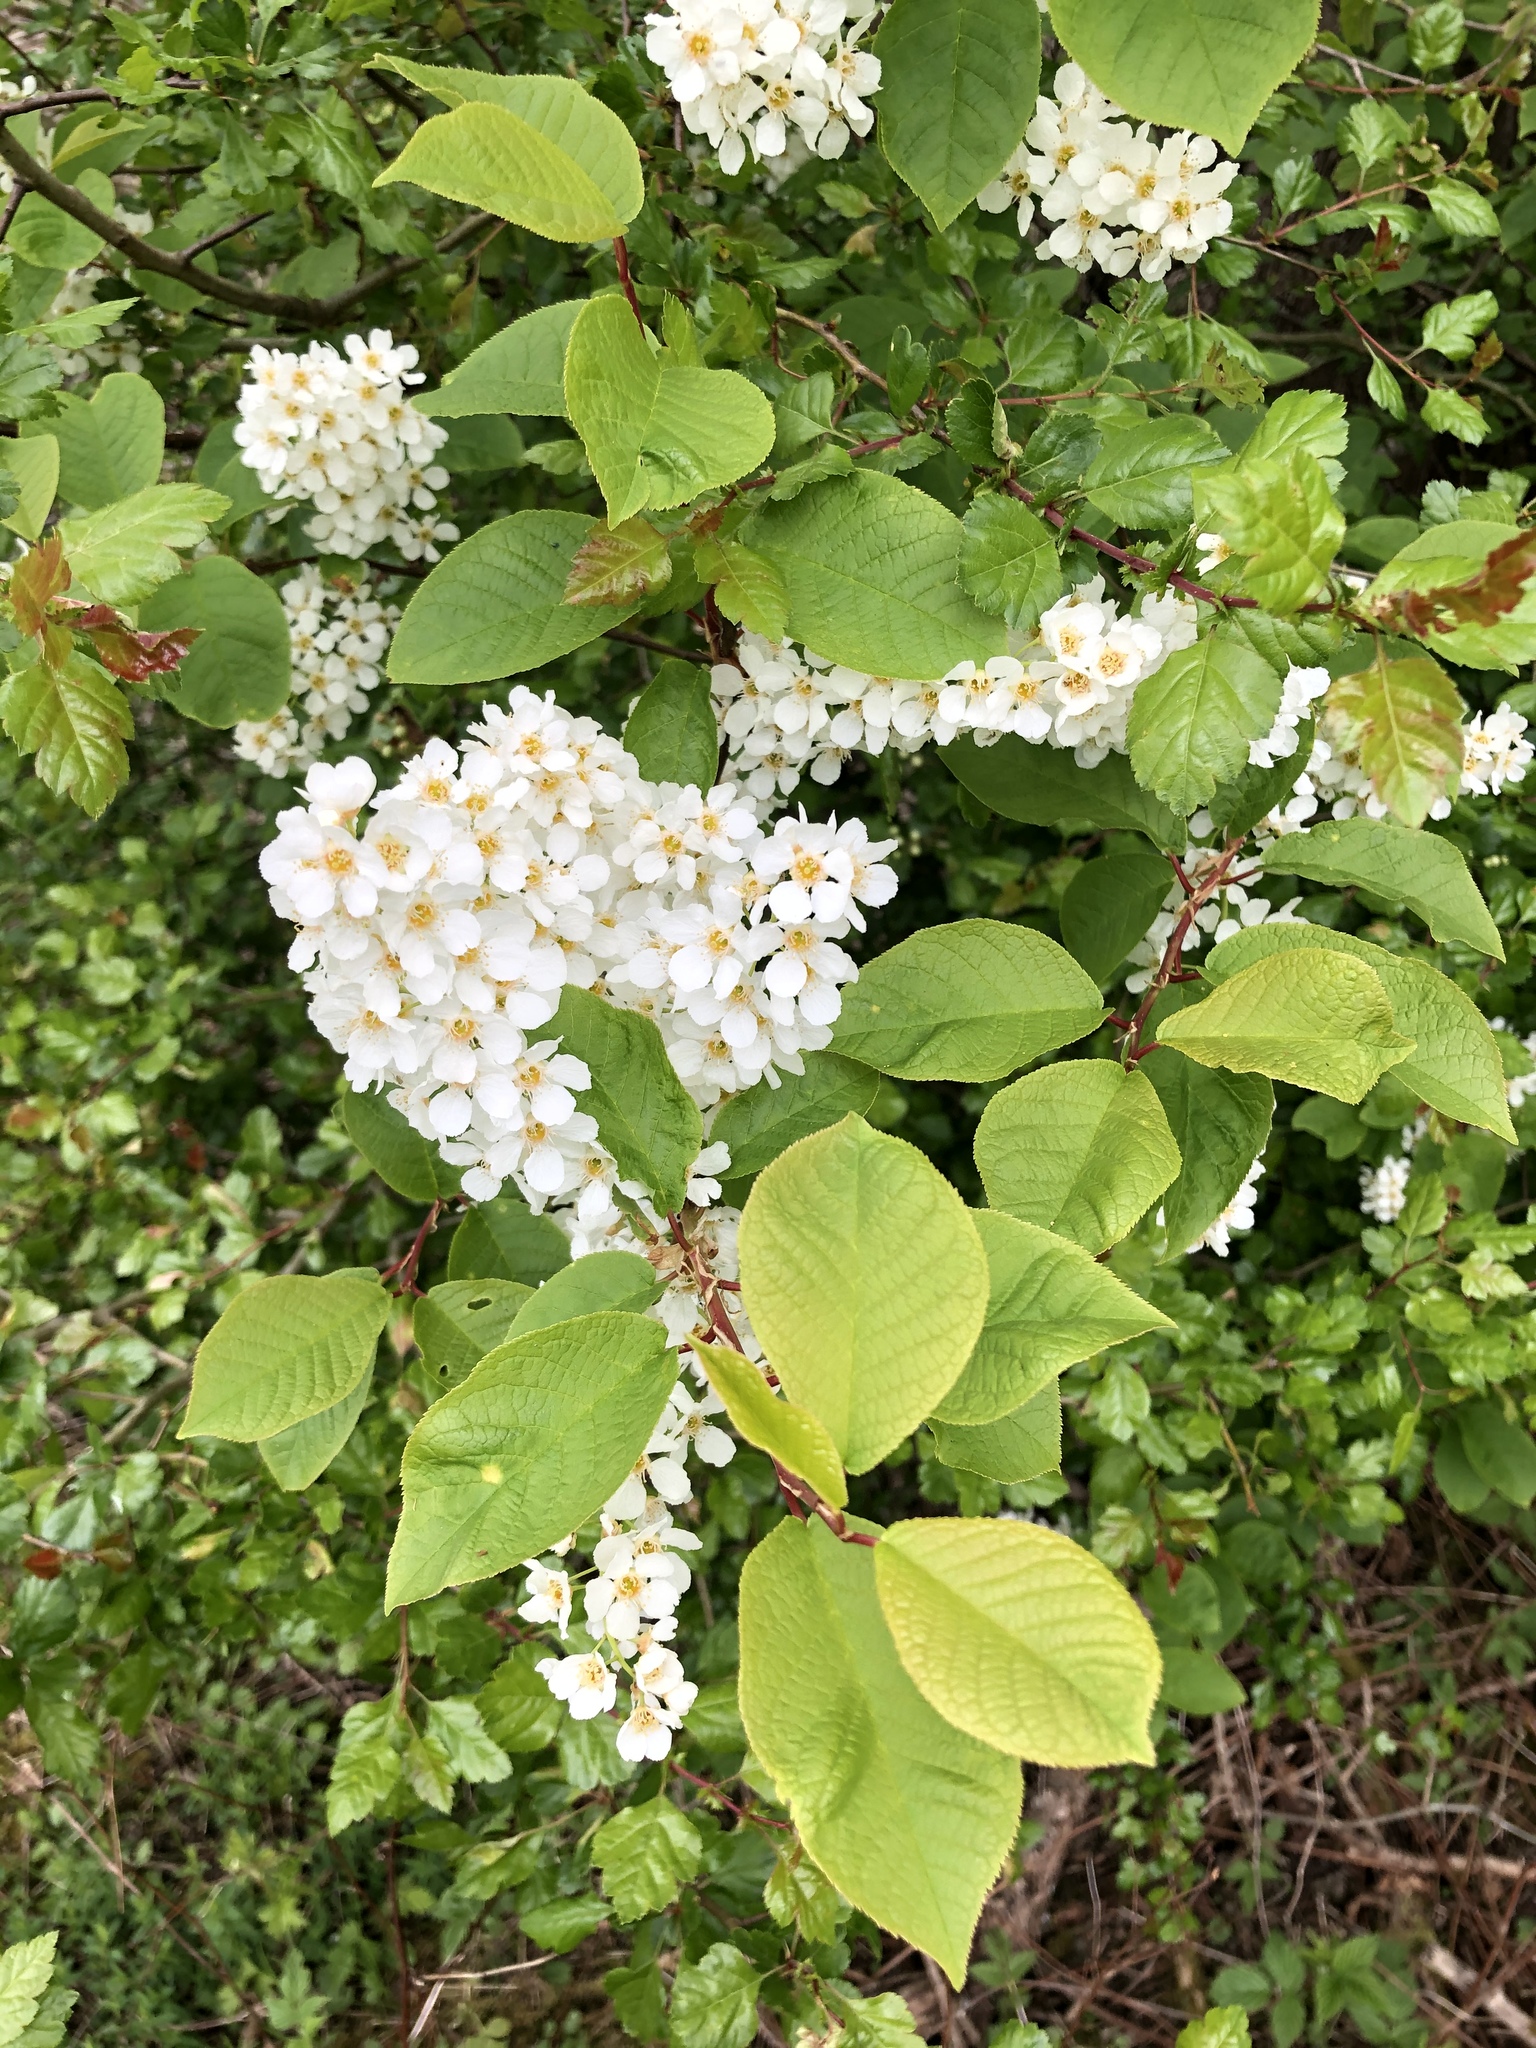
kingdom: Plantae
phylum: Tracheophyta
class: Magnoliopsida
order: Rosales
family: Rosaceae
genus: Prunus
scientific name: Prunus padus
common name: Bird cherry
